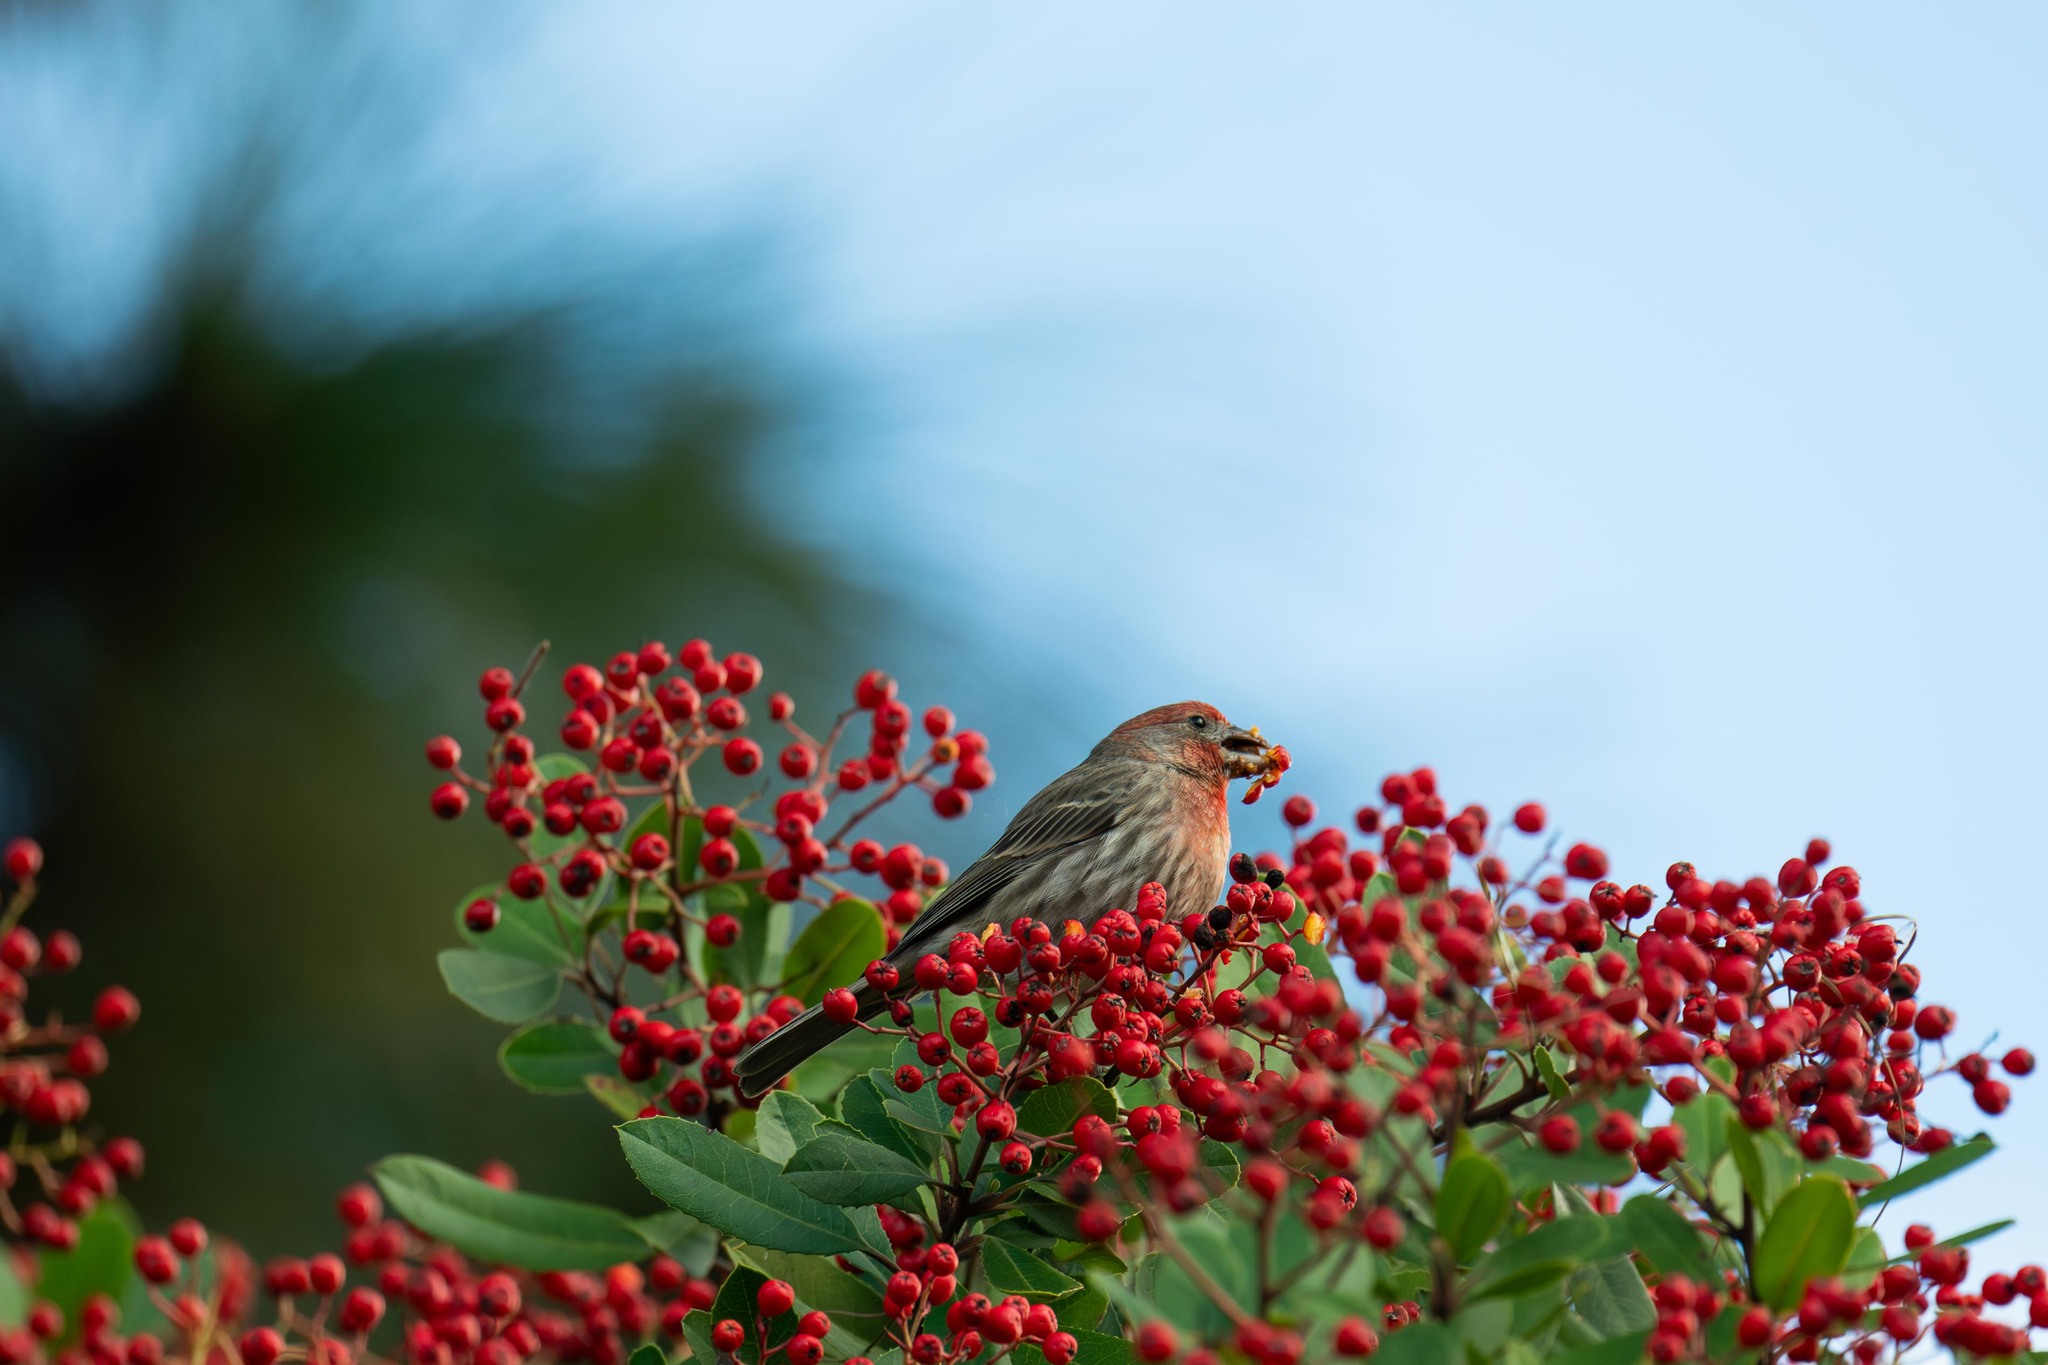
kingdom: Animalia
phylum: Chordata
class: Aves
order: Passeriformes
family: Fringillidae
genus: Haemorhous
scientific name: Haemorhous mexicanus
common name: House finch
